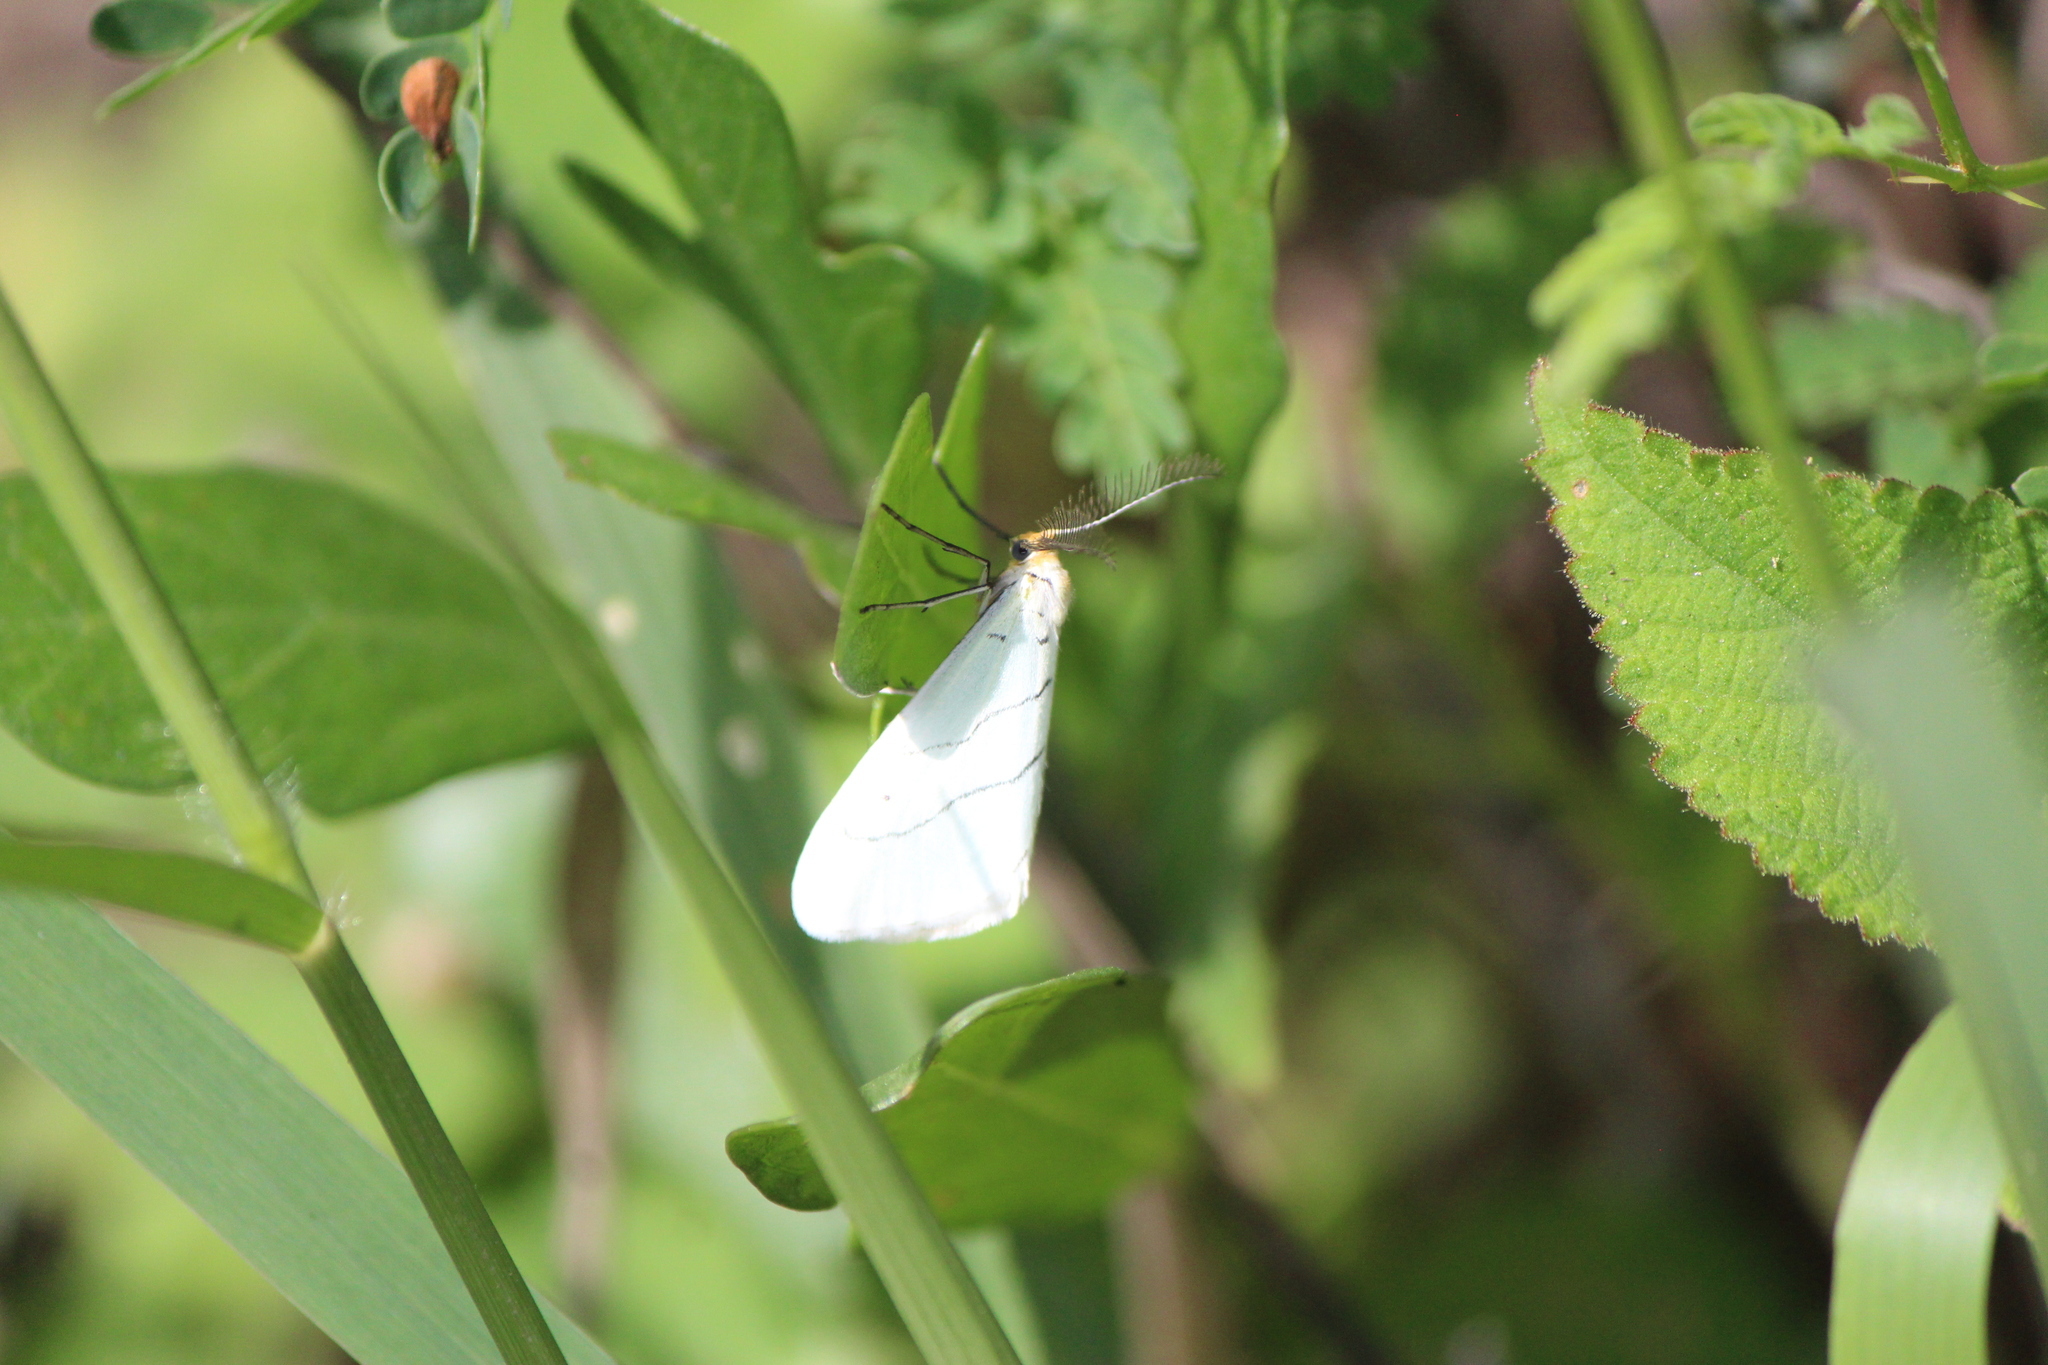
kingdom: Animalia
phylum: Arthropoda
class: Insecta
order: Lepidoptera
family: Doidae
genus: Leuculodes
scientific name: Leuculodes lacteolaria
